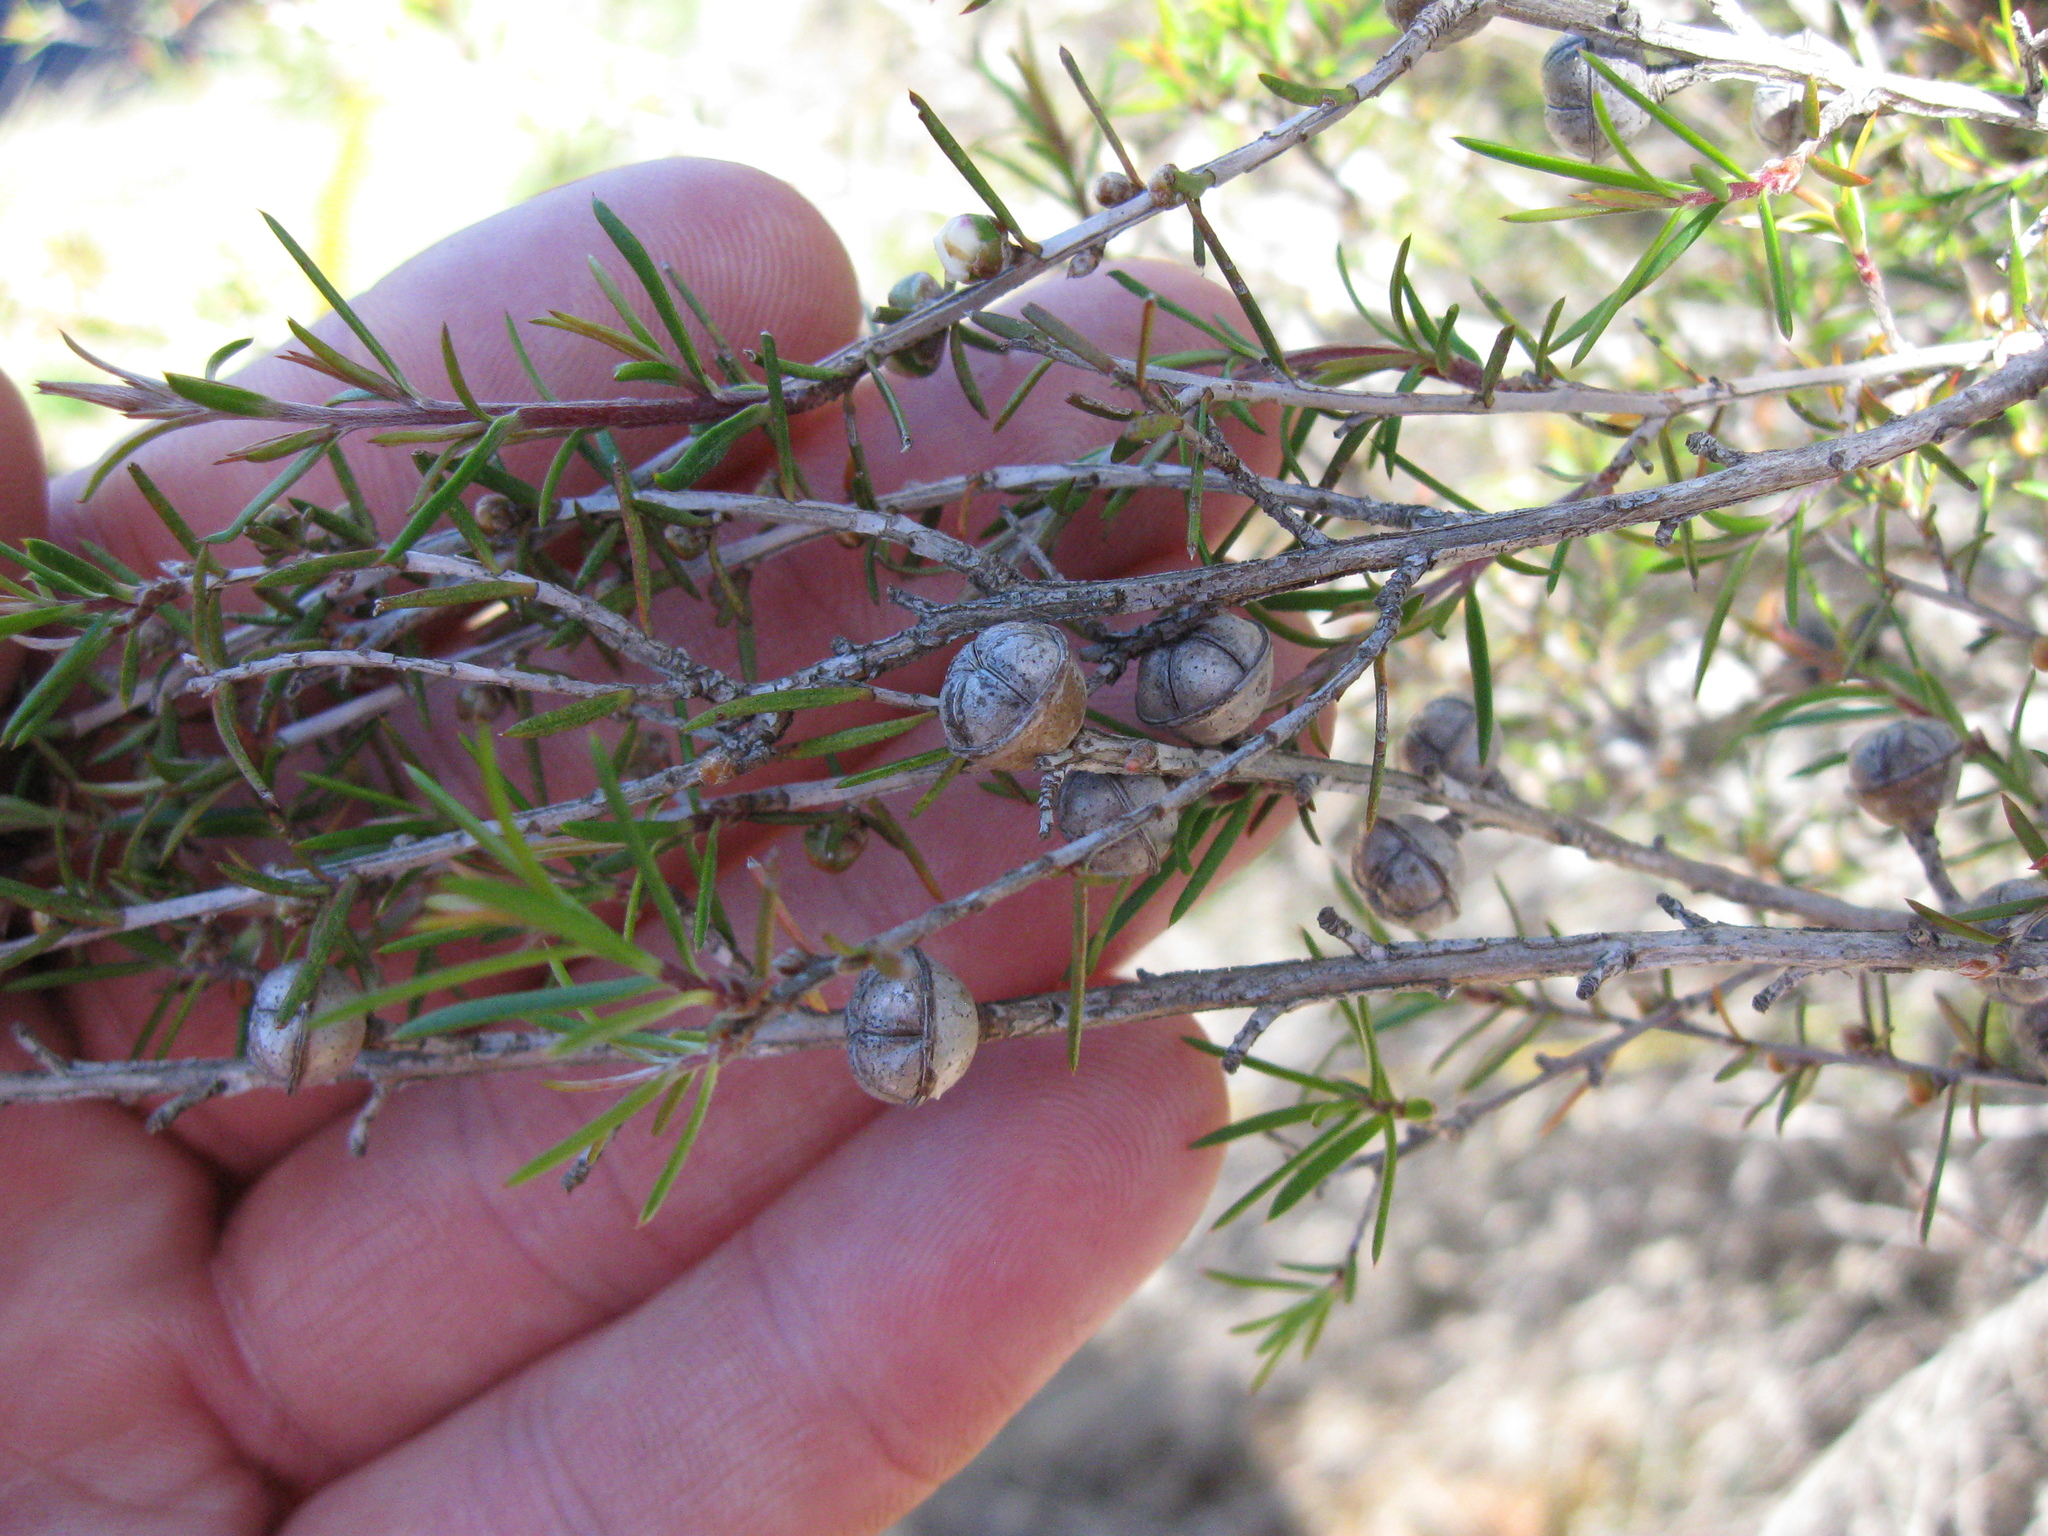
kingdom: Plantae
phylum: Tracheophyta
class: Magnoliopsida
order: Myrtales
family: Myrtaceae
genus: Leptospermum
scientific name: Leptospermum scoparium
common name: Broom tea-tree
